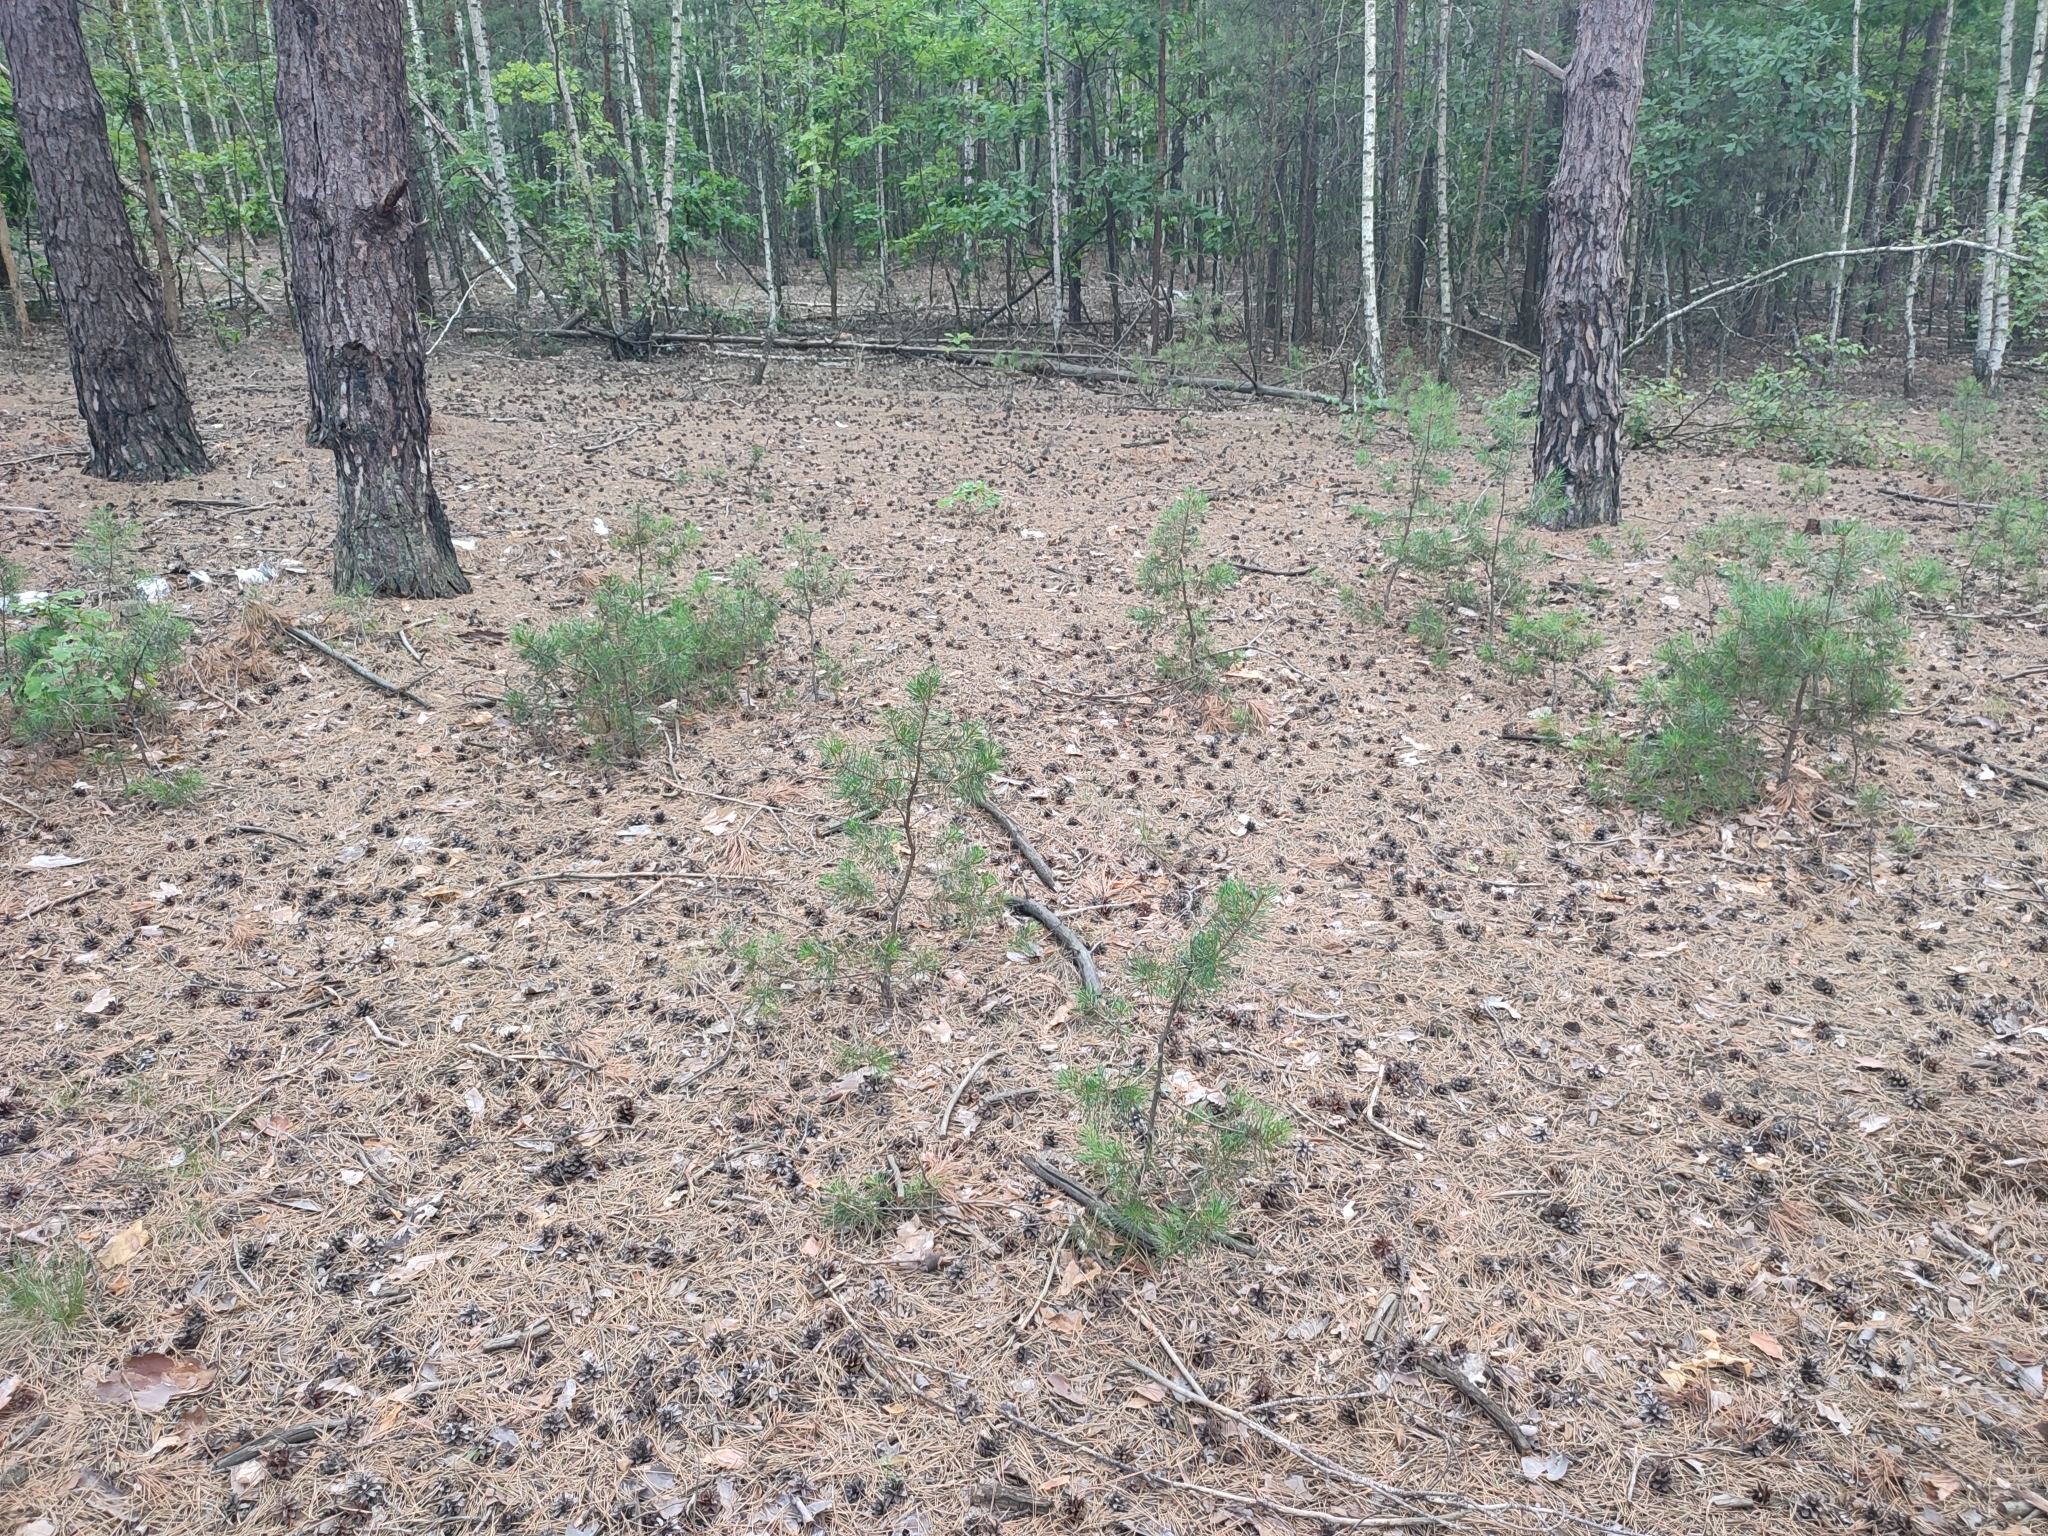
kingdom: Plantae
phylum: Tracheophyta
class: Pinopsida
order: Pinales
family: Pinaceae
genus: Pinus
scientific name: Pinus sylvestris
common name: Scots pine
